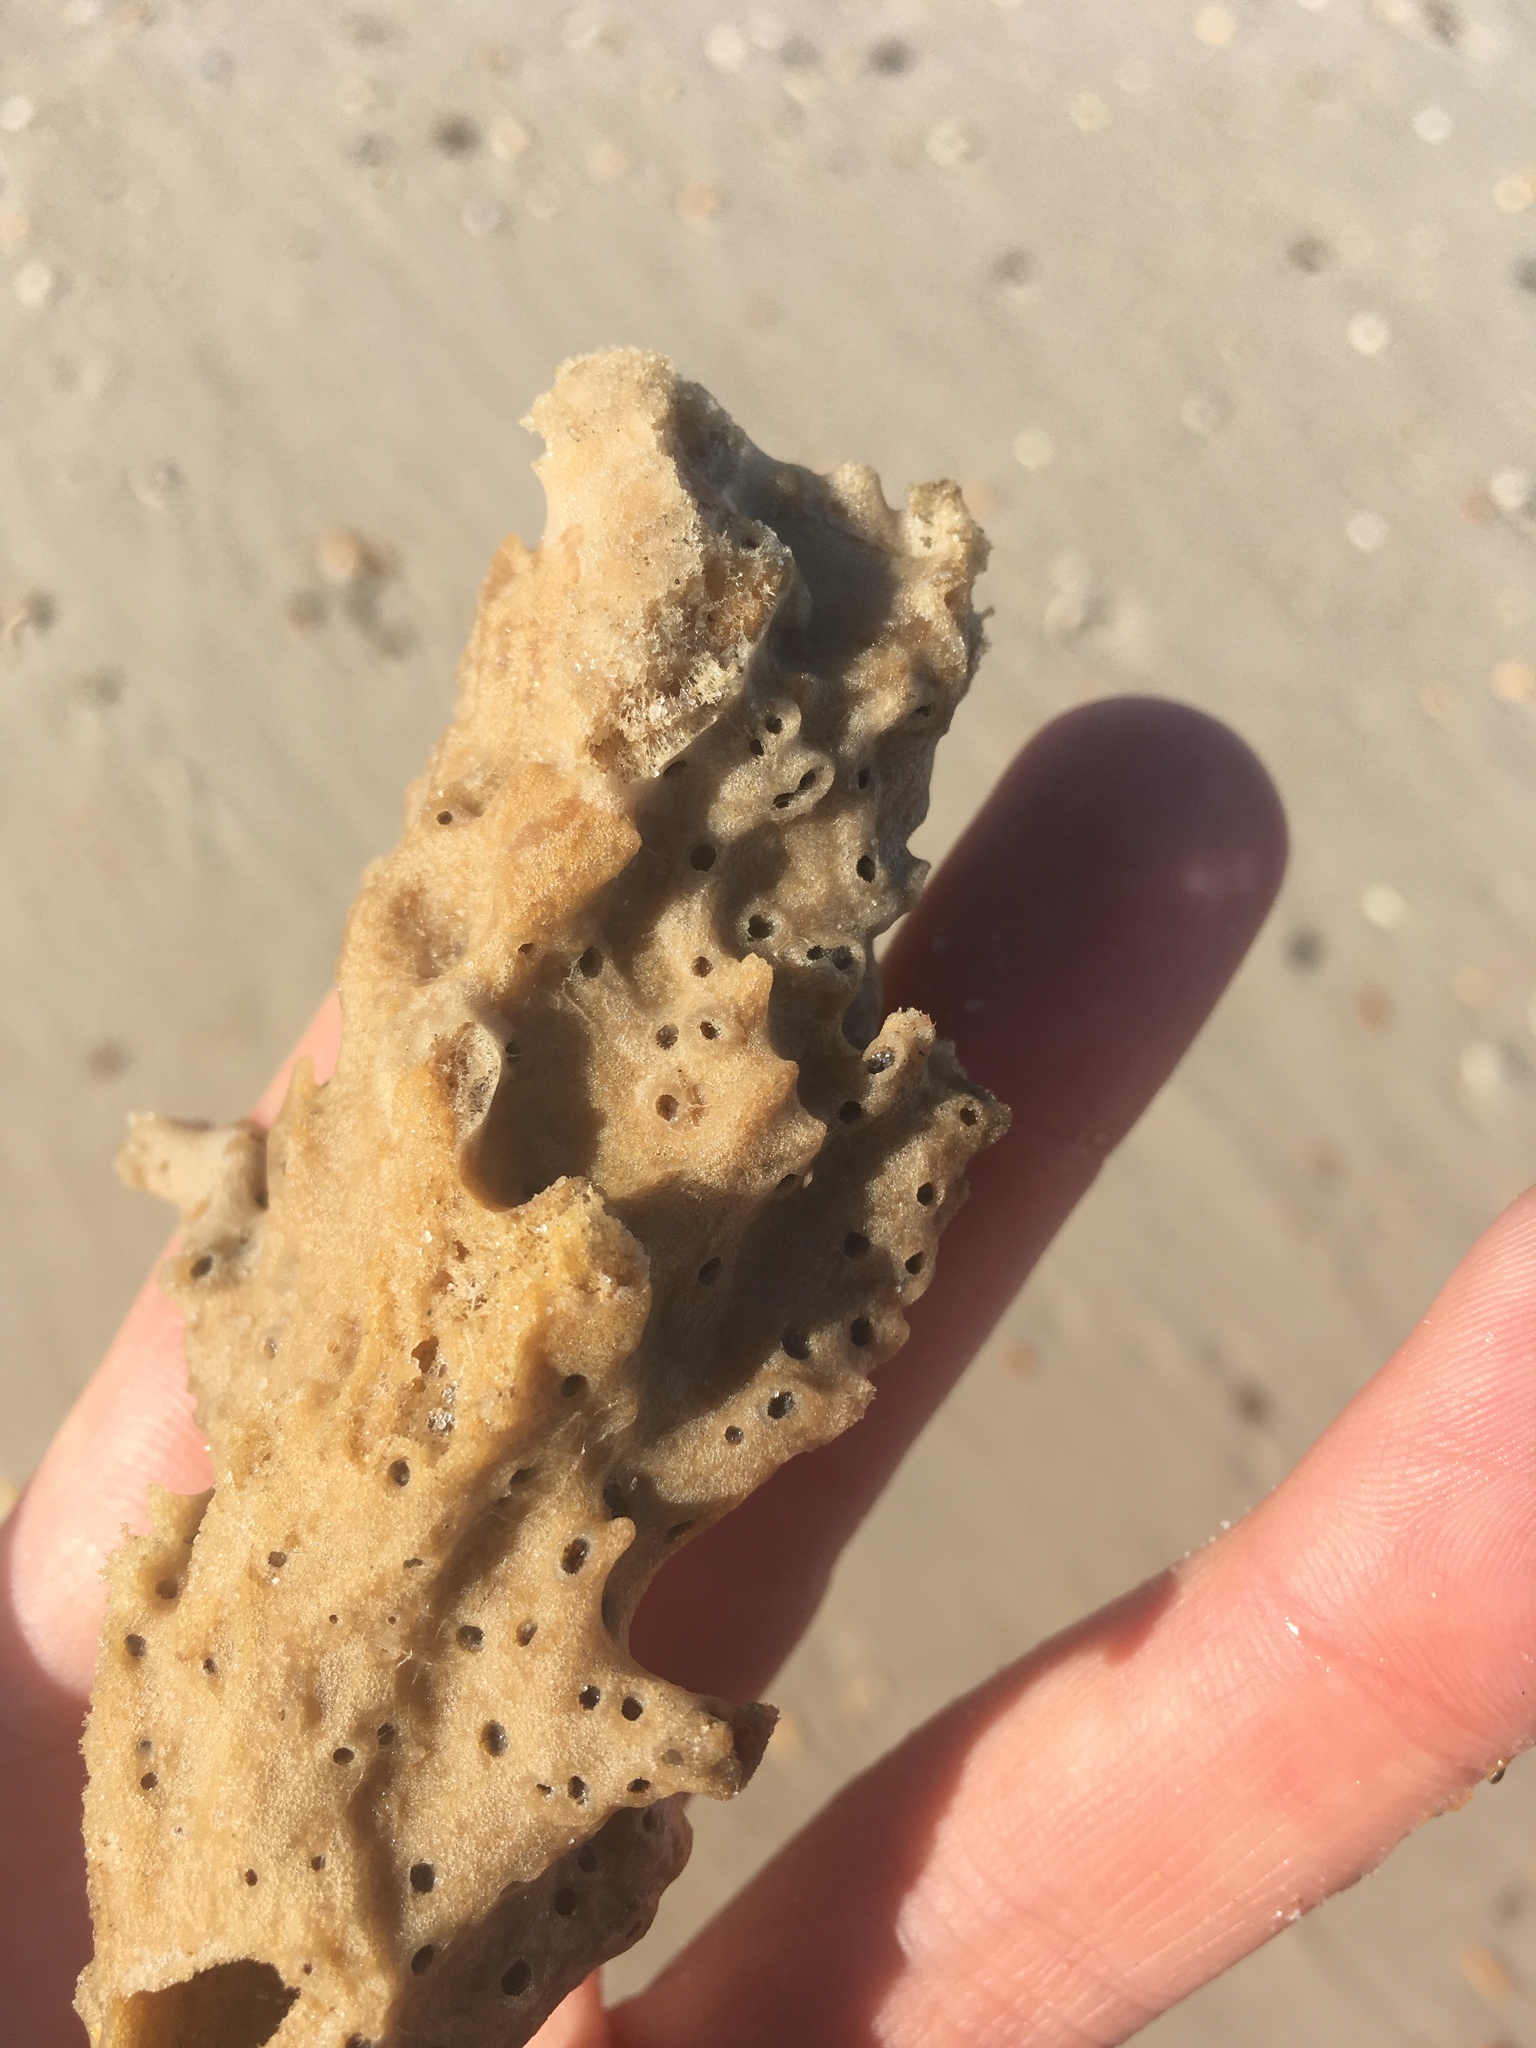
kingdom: Animalia
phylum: Porifera
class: Demospongiae
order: Haplosclerida
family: Callyspongiidae
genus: Callyspongia
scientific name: Callyspongia aculeata
